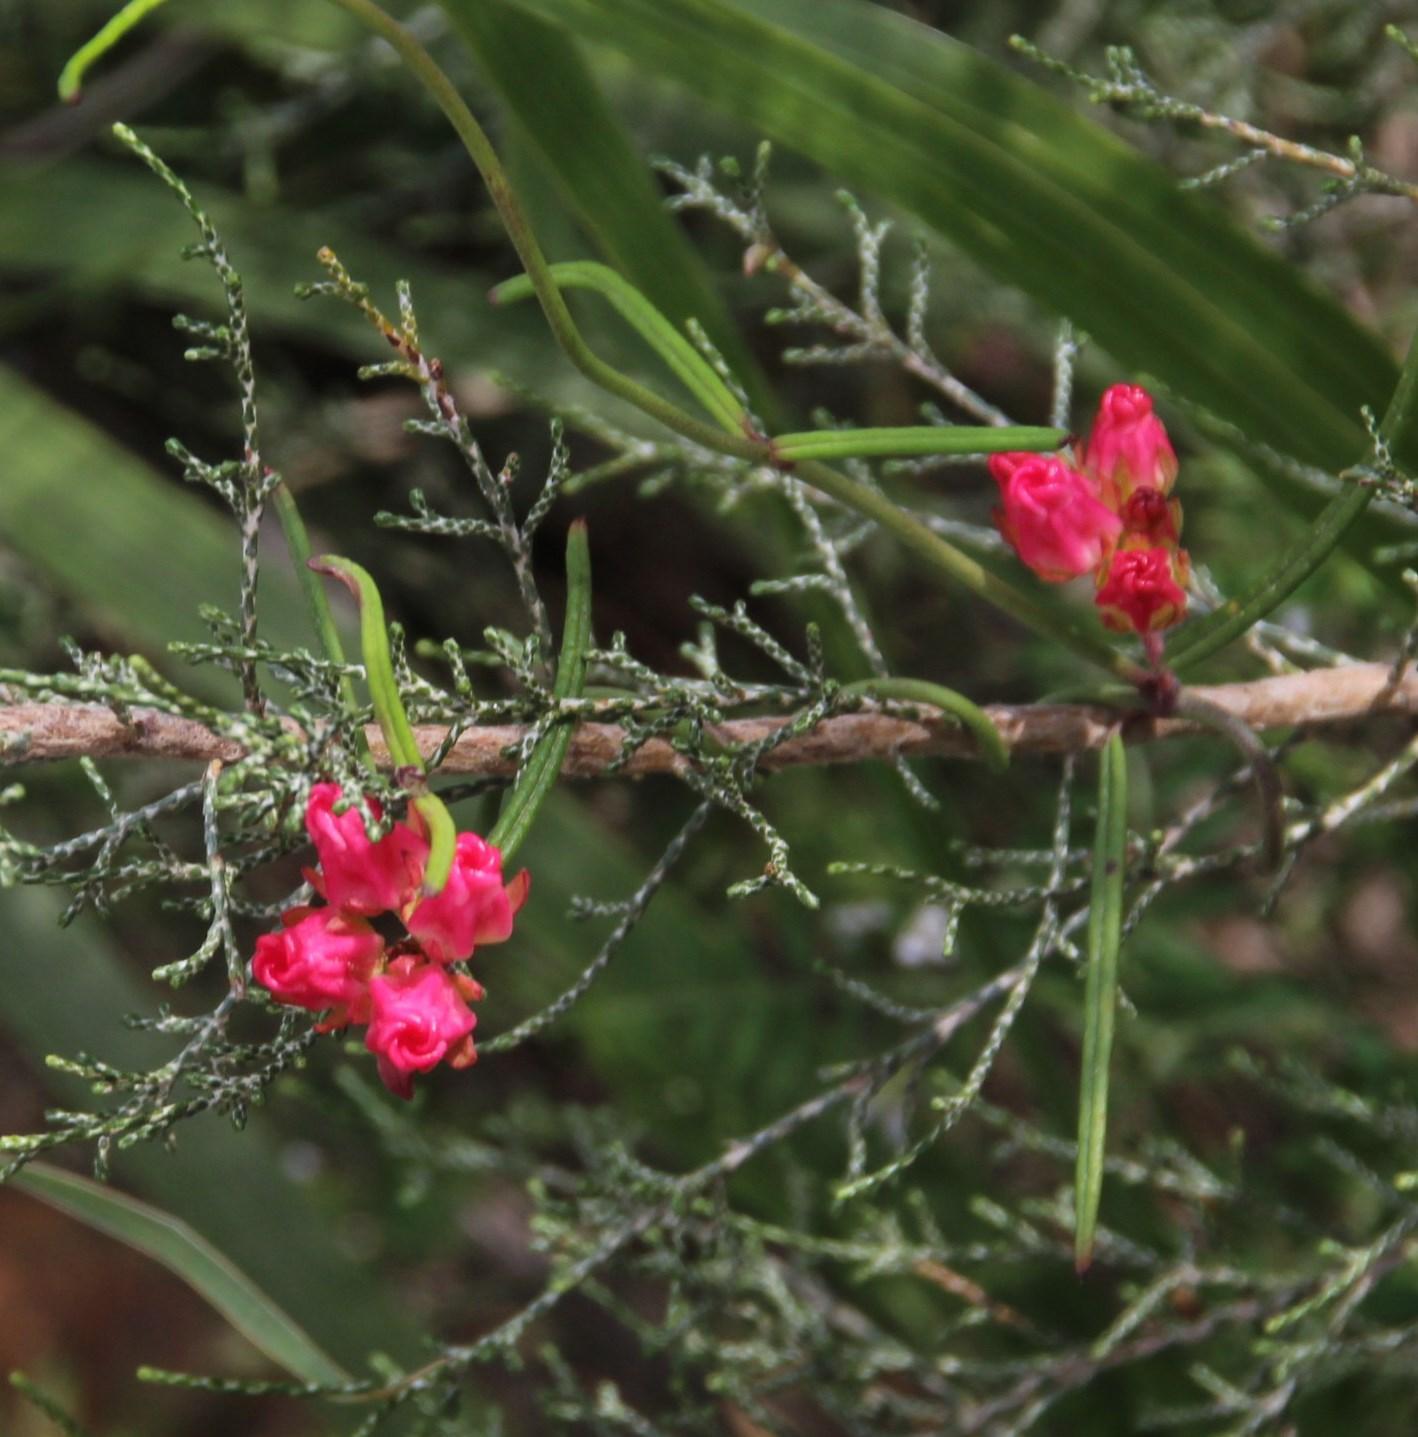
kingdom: Plantae
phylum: Tracheophyta
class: Magnoliopsida
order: Gentianales
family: Apocynaceae
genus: Microloma
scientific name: Microloma tenuifolium
